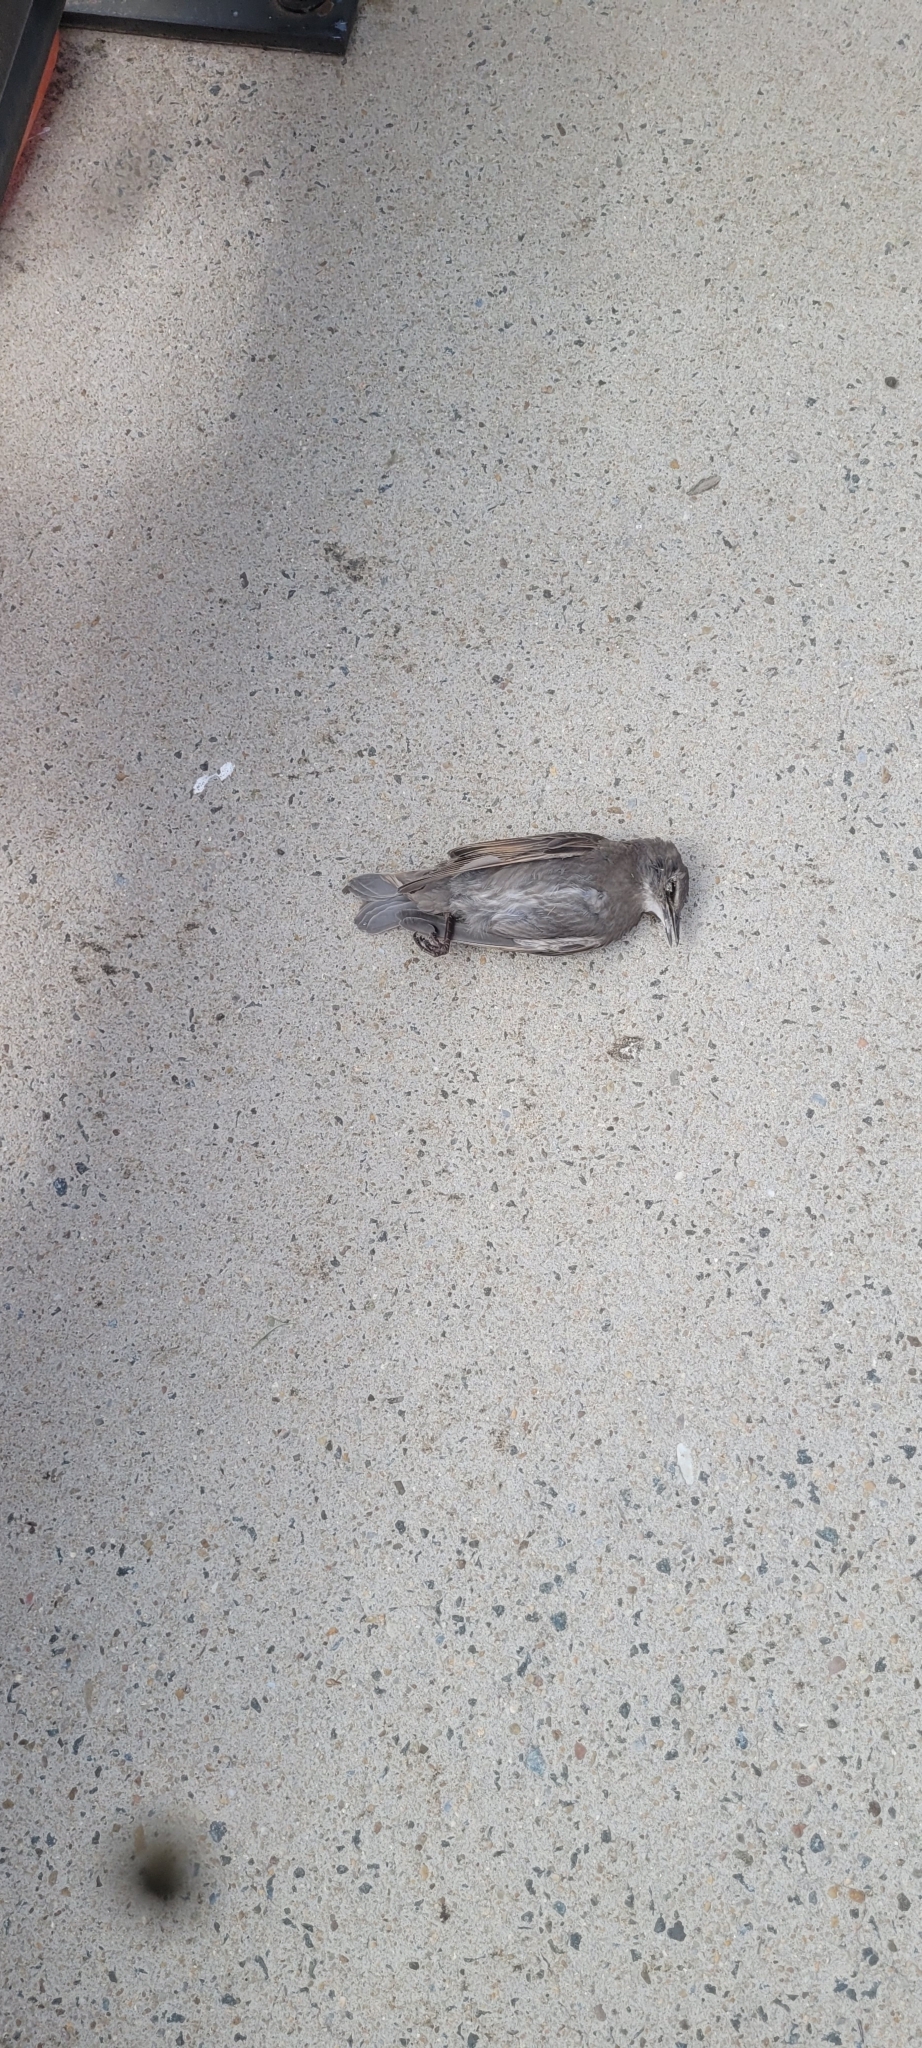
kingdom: Animalia
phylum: Chordata
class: Aves
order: Passeriformes
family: Sturnidae
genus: Sturnus
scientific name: Sturnus vulgaris
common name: Common starling
